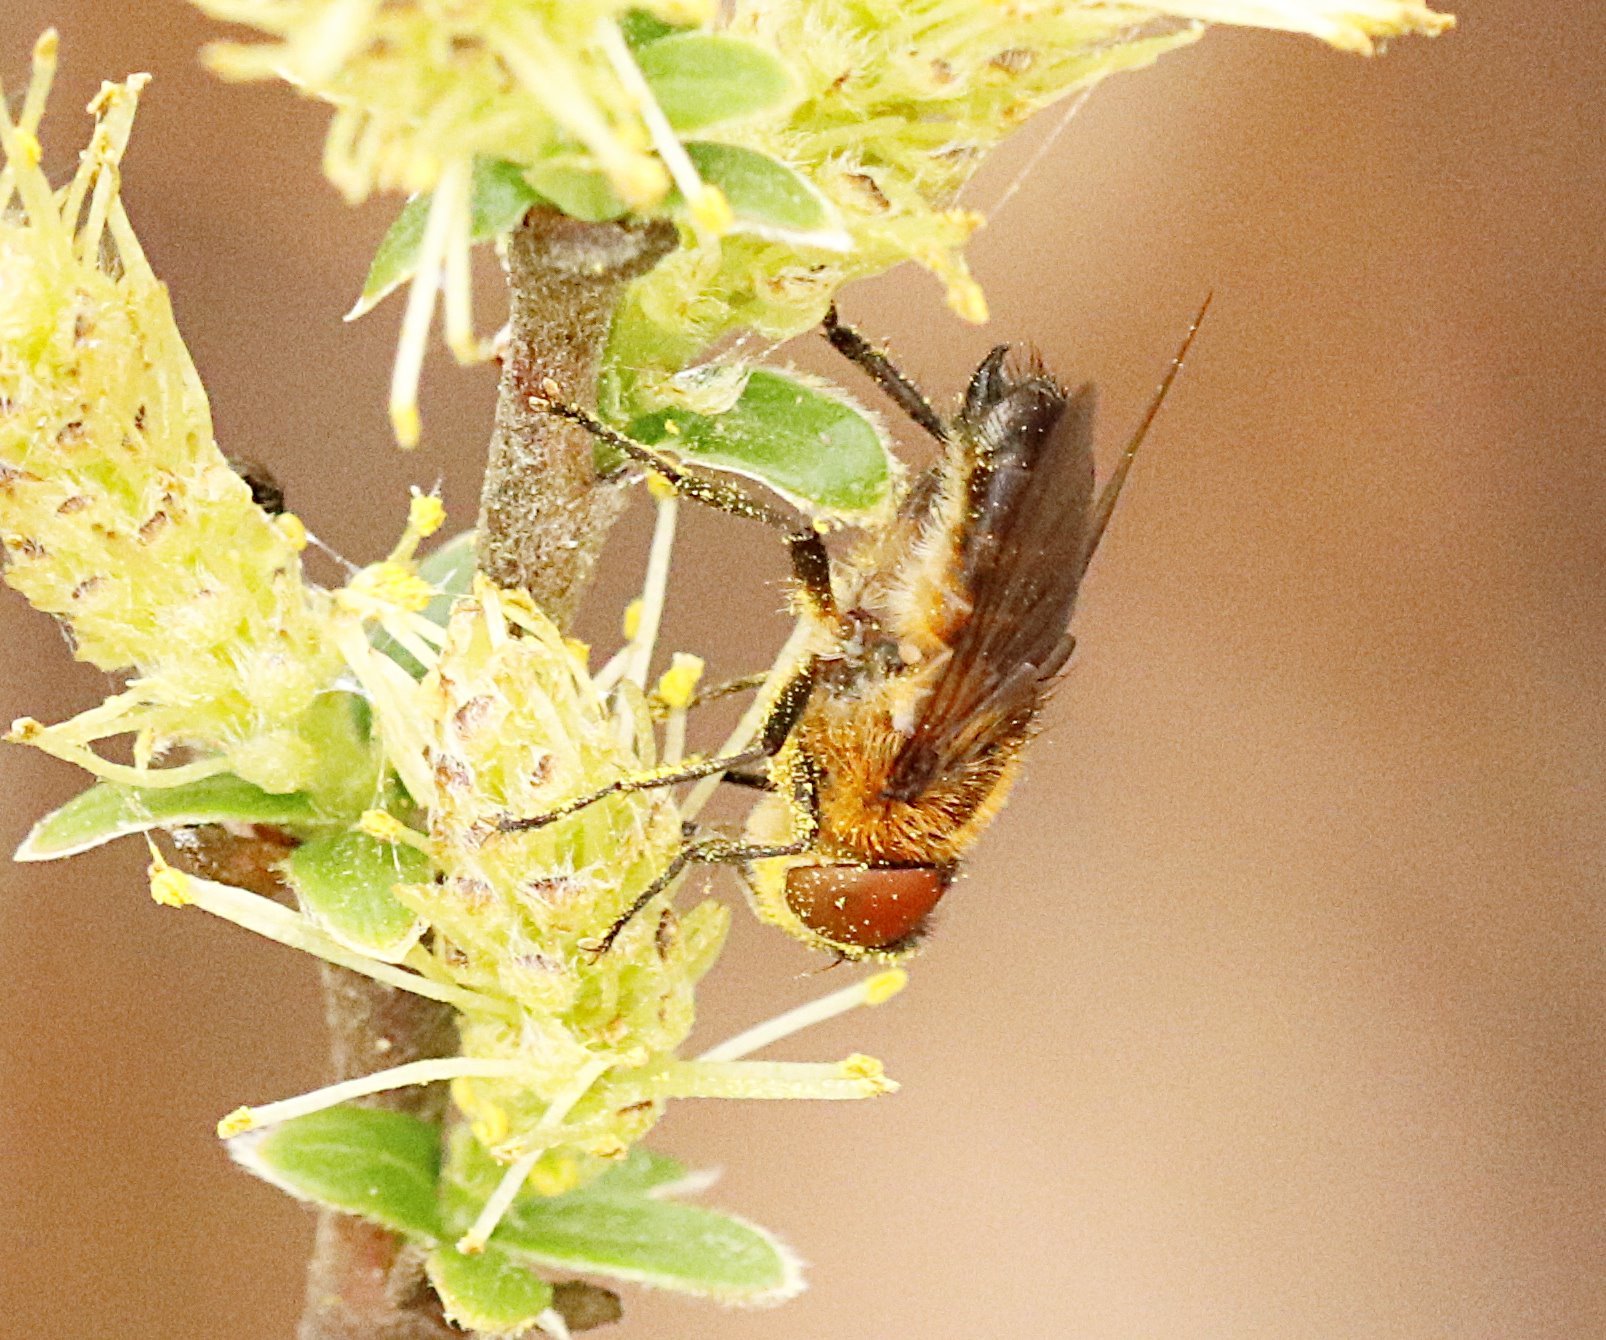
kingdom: Animalia
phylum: Arthropoda
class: Insecta
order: Diptera
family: Tachinidae
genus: Phasia
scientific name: Phasia hemiptera
